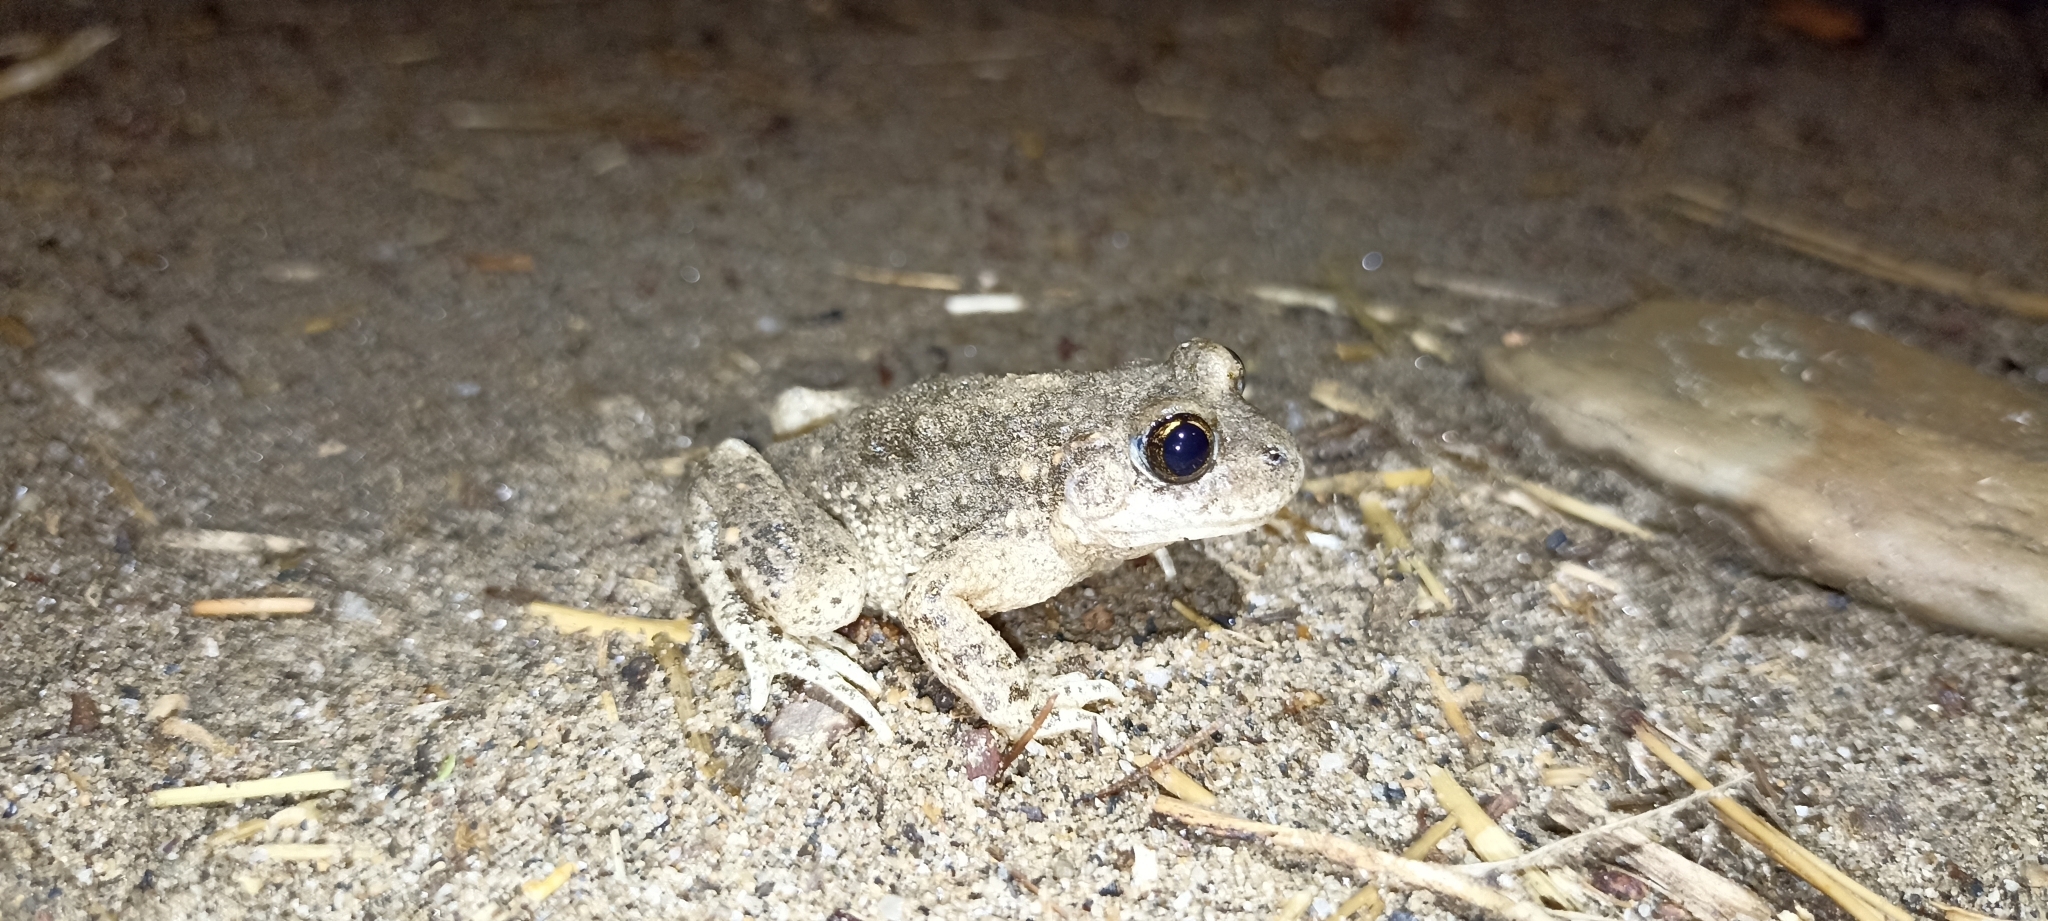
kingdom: Animalia
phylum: Chordata
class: Amphibia
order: Anura
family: Alytidae
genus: Alytes
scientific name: Alytes obstetricans
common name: Midwife toad
